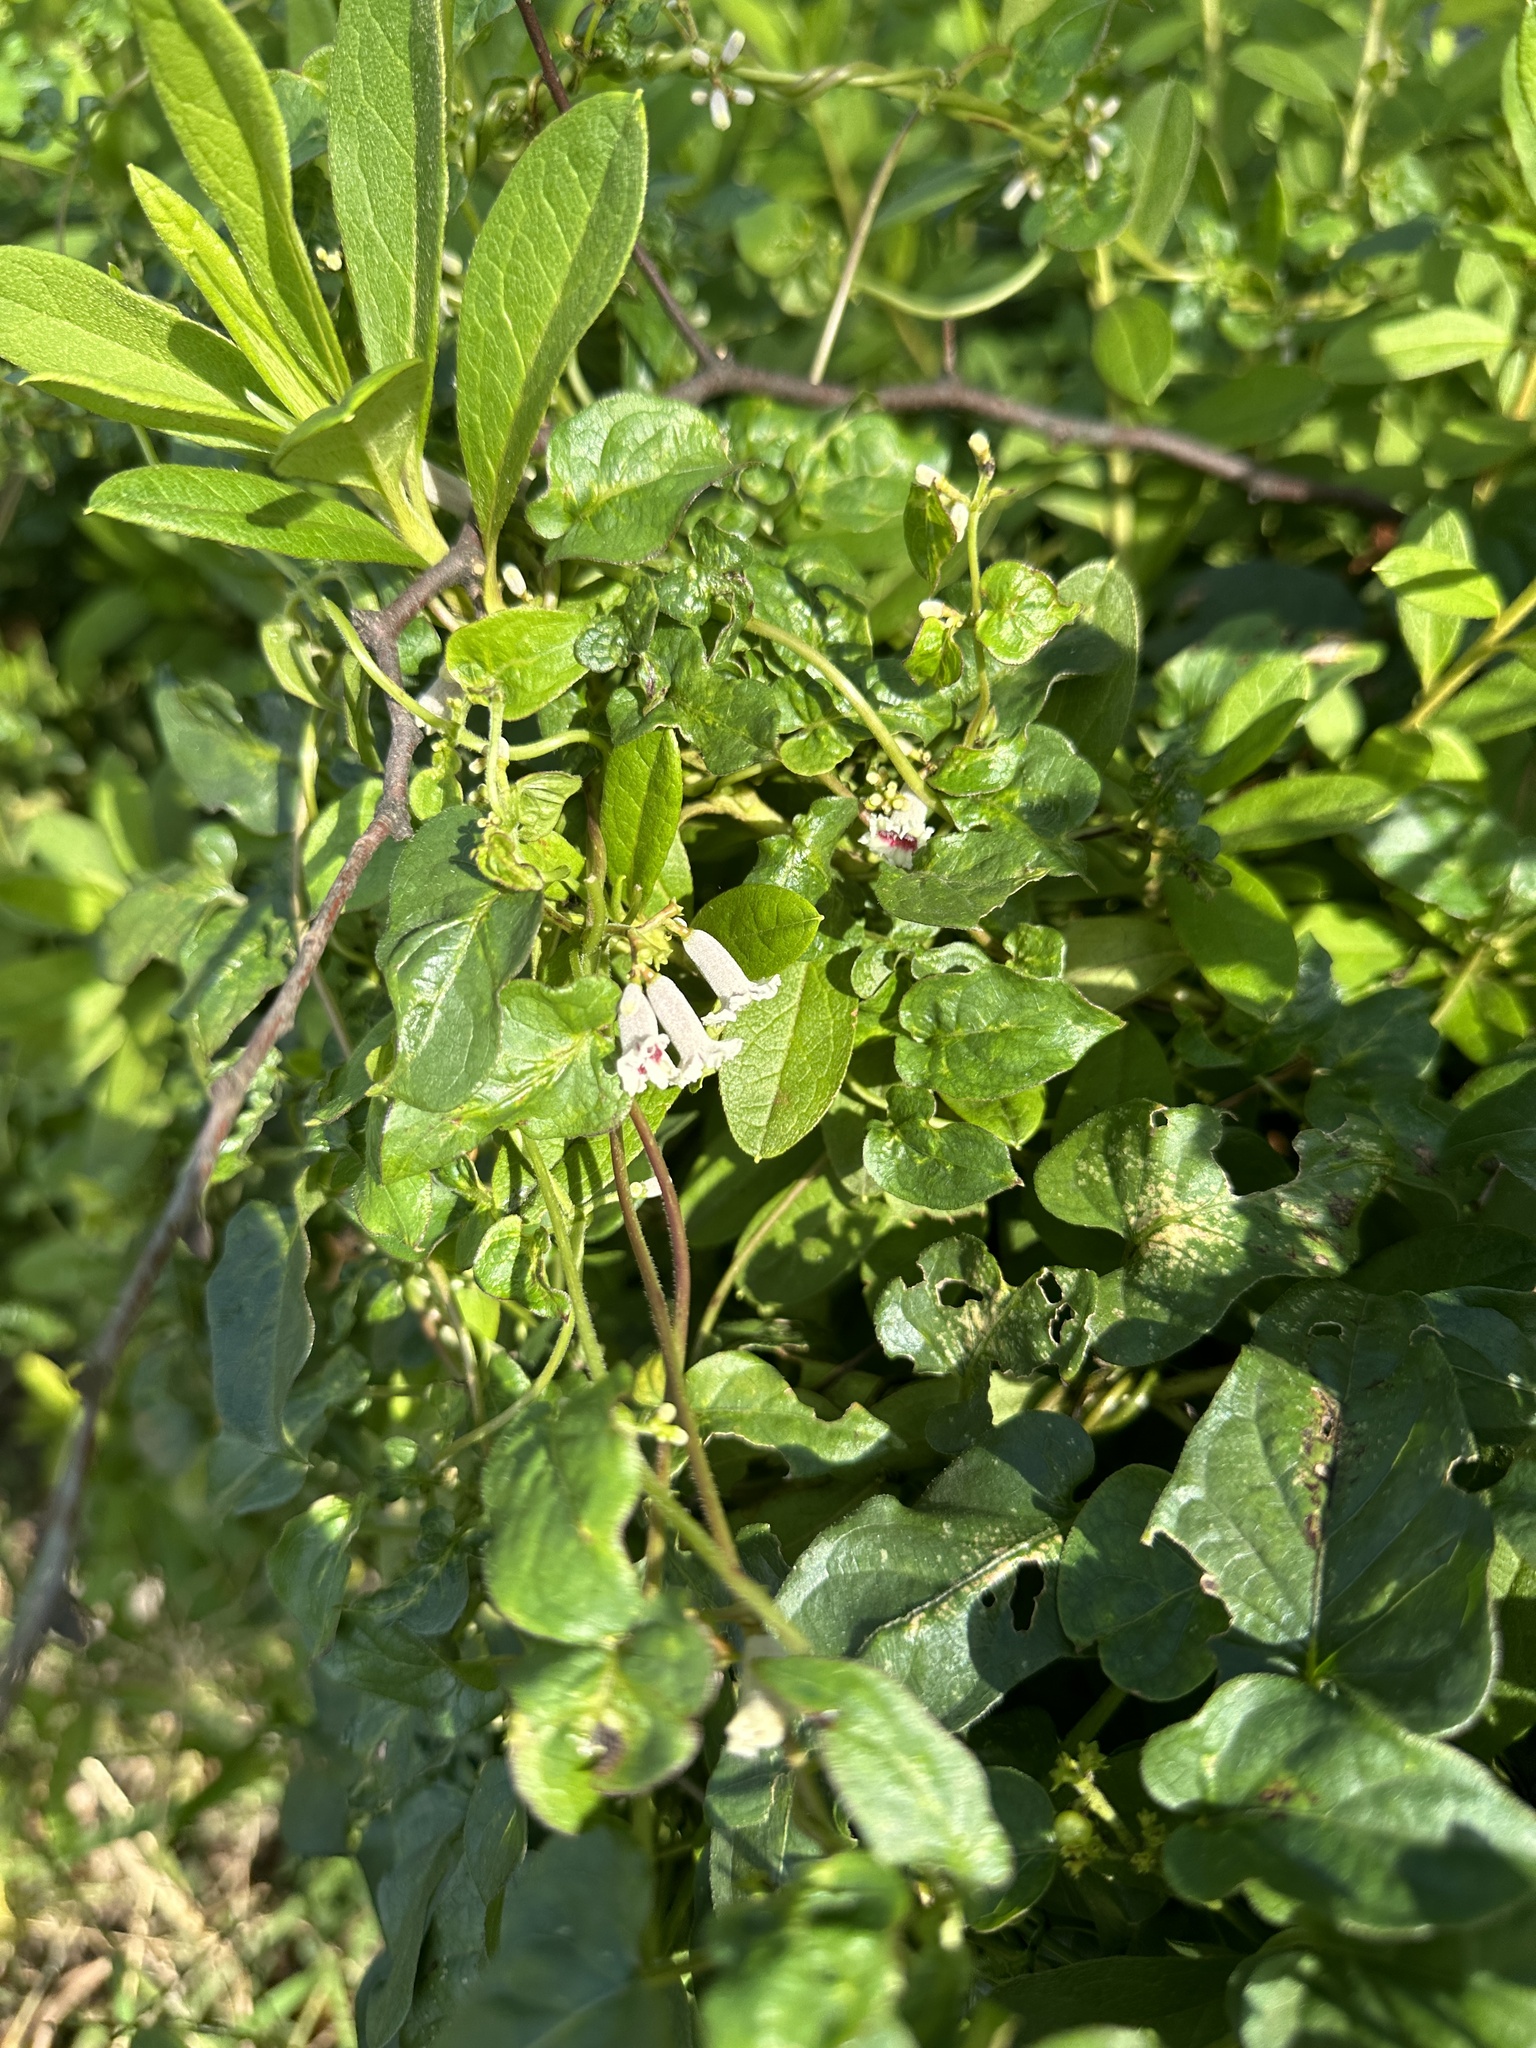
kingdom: Plantae
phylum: Tracheophyta
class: Magnoliopsida
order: Gentianales
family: Rubiaceae
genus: Paederia
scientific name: Paederia foetida
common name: Stinkvine
